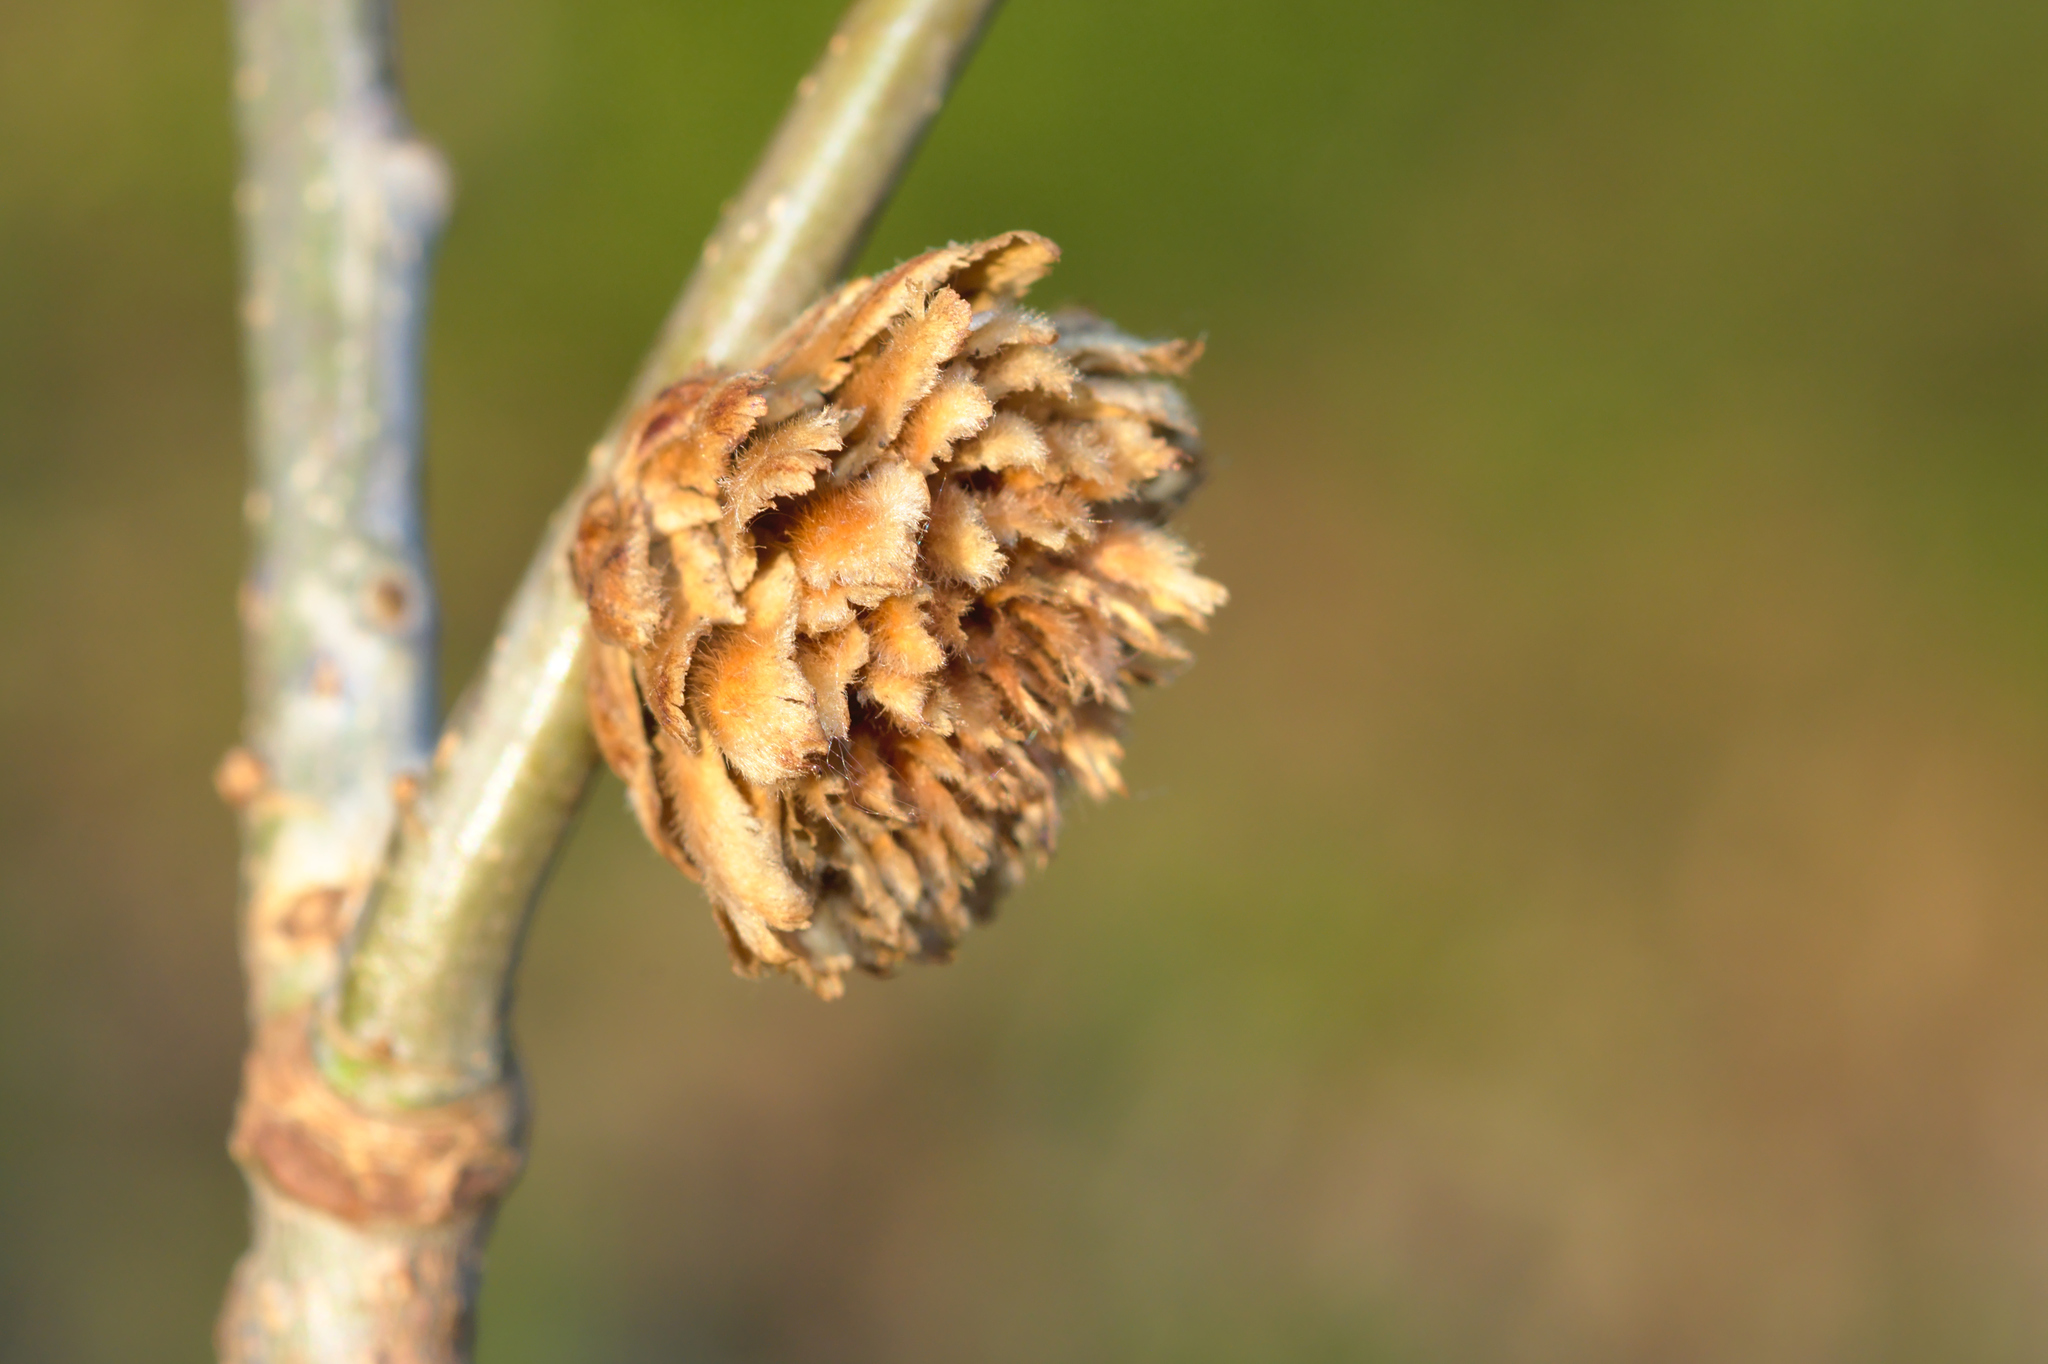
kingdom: Animalia
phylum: Arthropoda
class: Insecta
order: Hymenoptera
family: Cynipidae
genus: Andricus
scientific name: Andricus foecundatrix
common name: Artichoke gall
